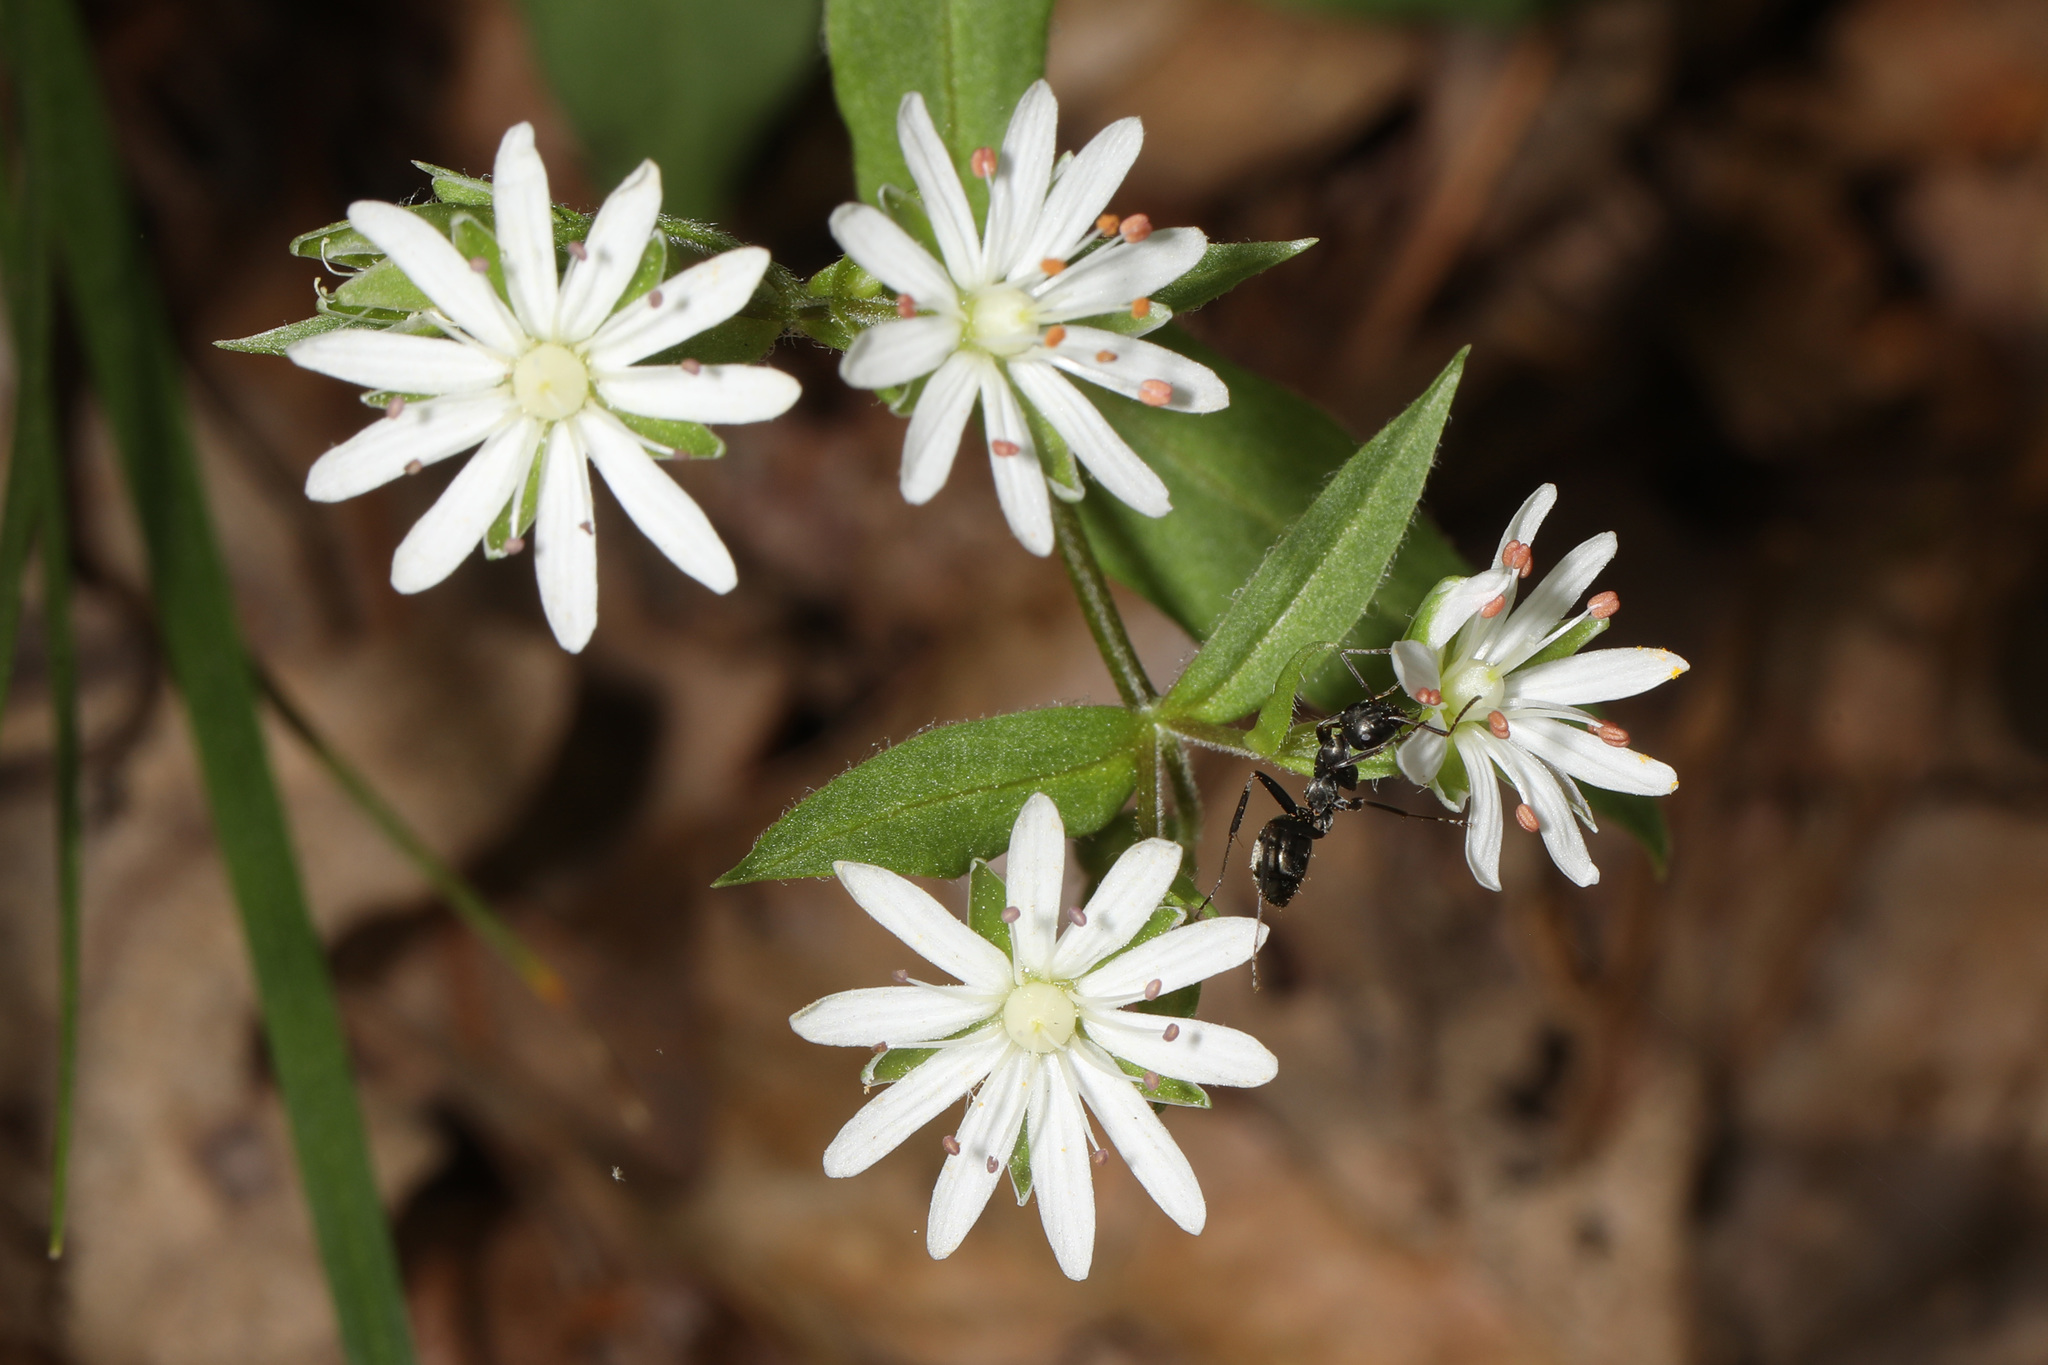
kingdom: Plantae
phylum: Tracheophyta
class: Magnoliopsida
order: Caryophyllales
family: Caryophyllaceae
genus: Stellaria
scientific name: Stellaria pubera
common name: Star chickweed
